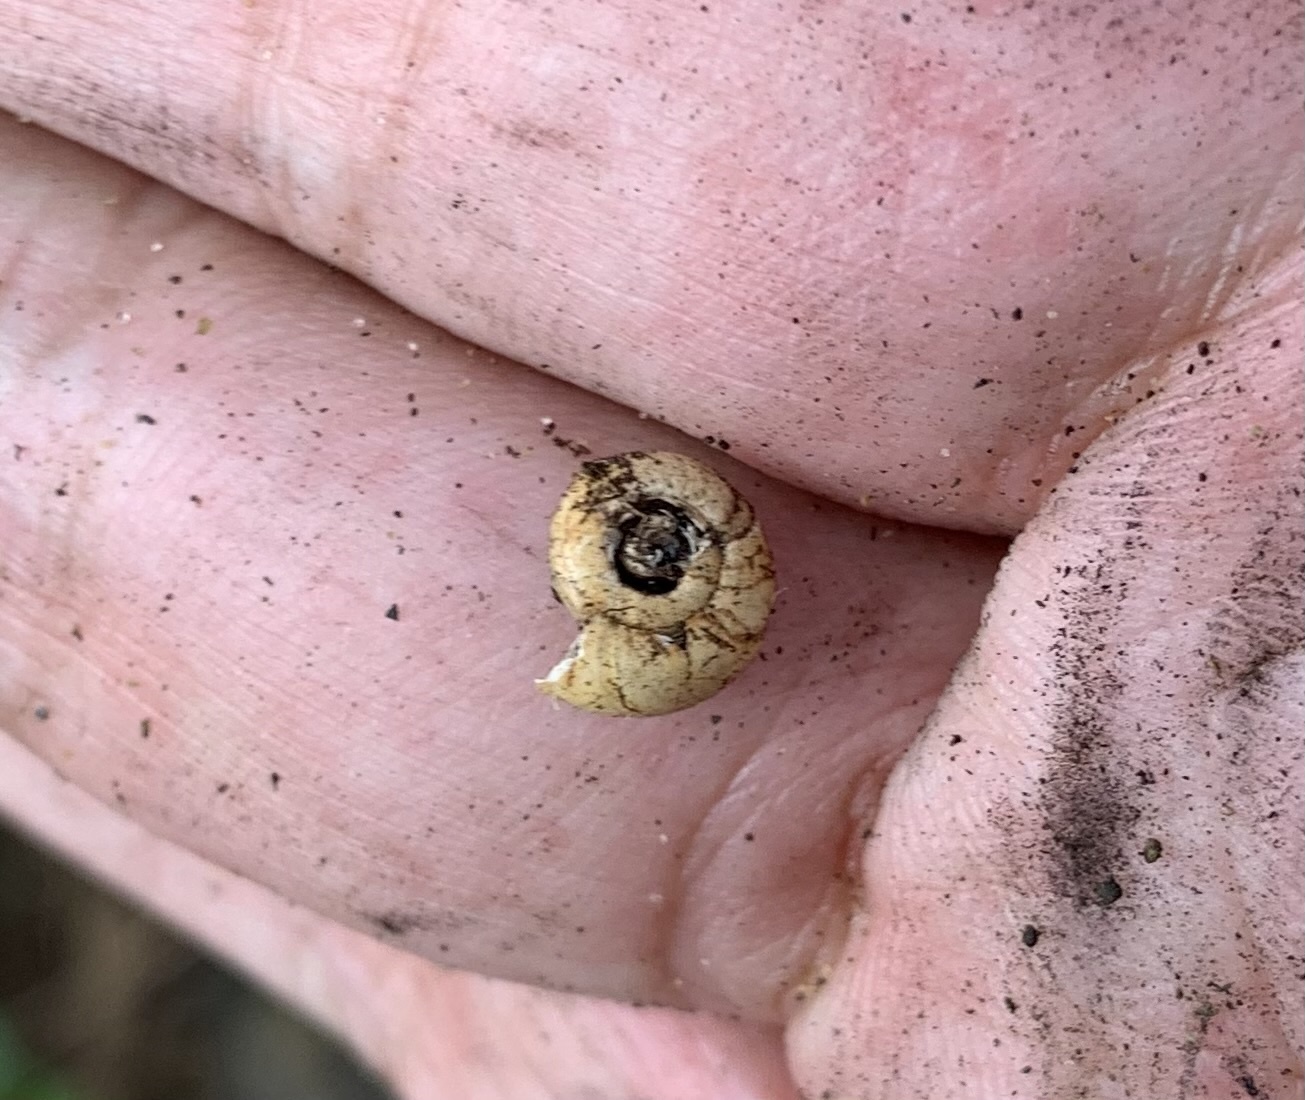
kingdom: Animalia
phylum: Mollusca
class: Gastropoda
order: Stylommatophora
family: Oxychilidae
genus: Oxychilus
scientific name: Oxychilus
